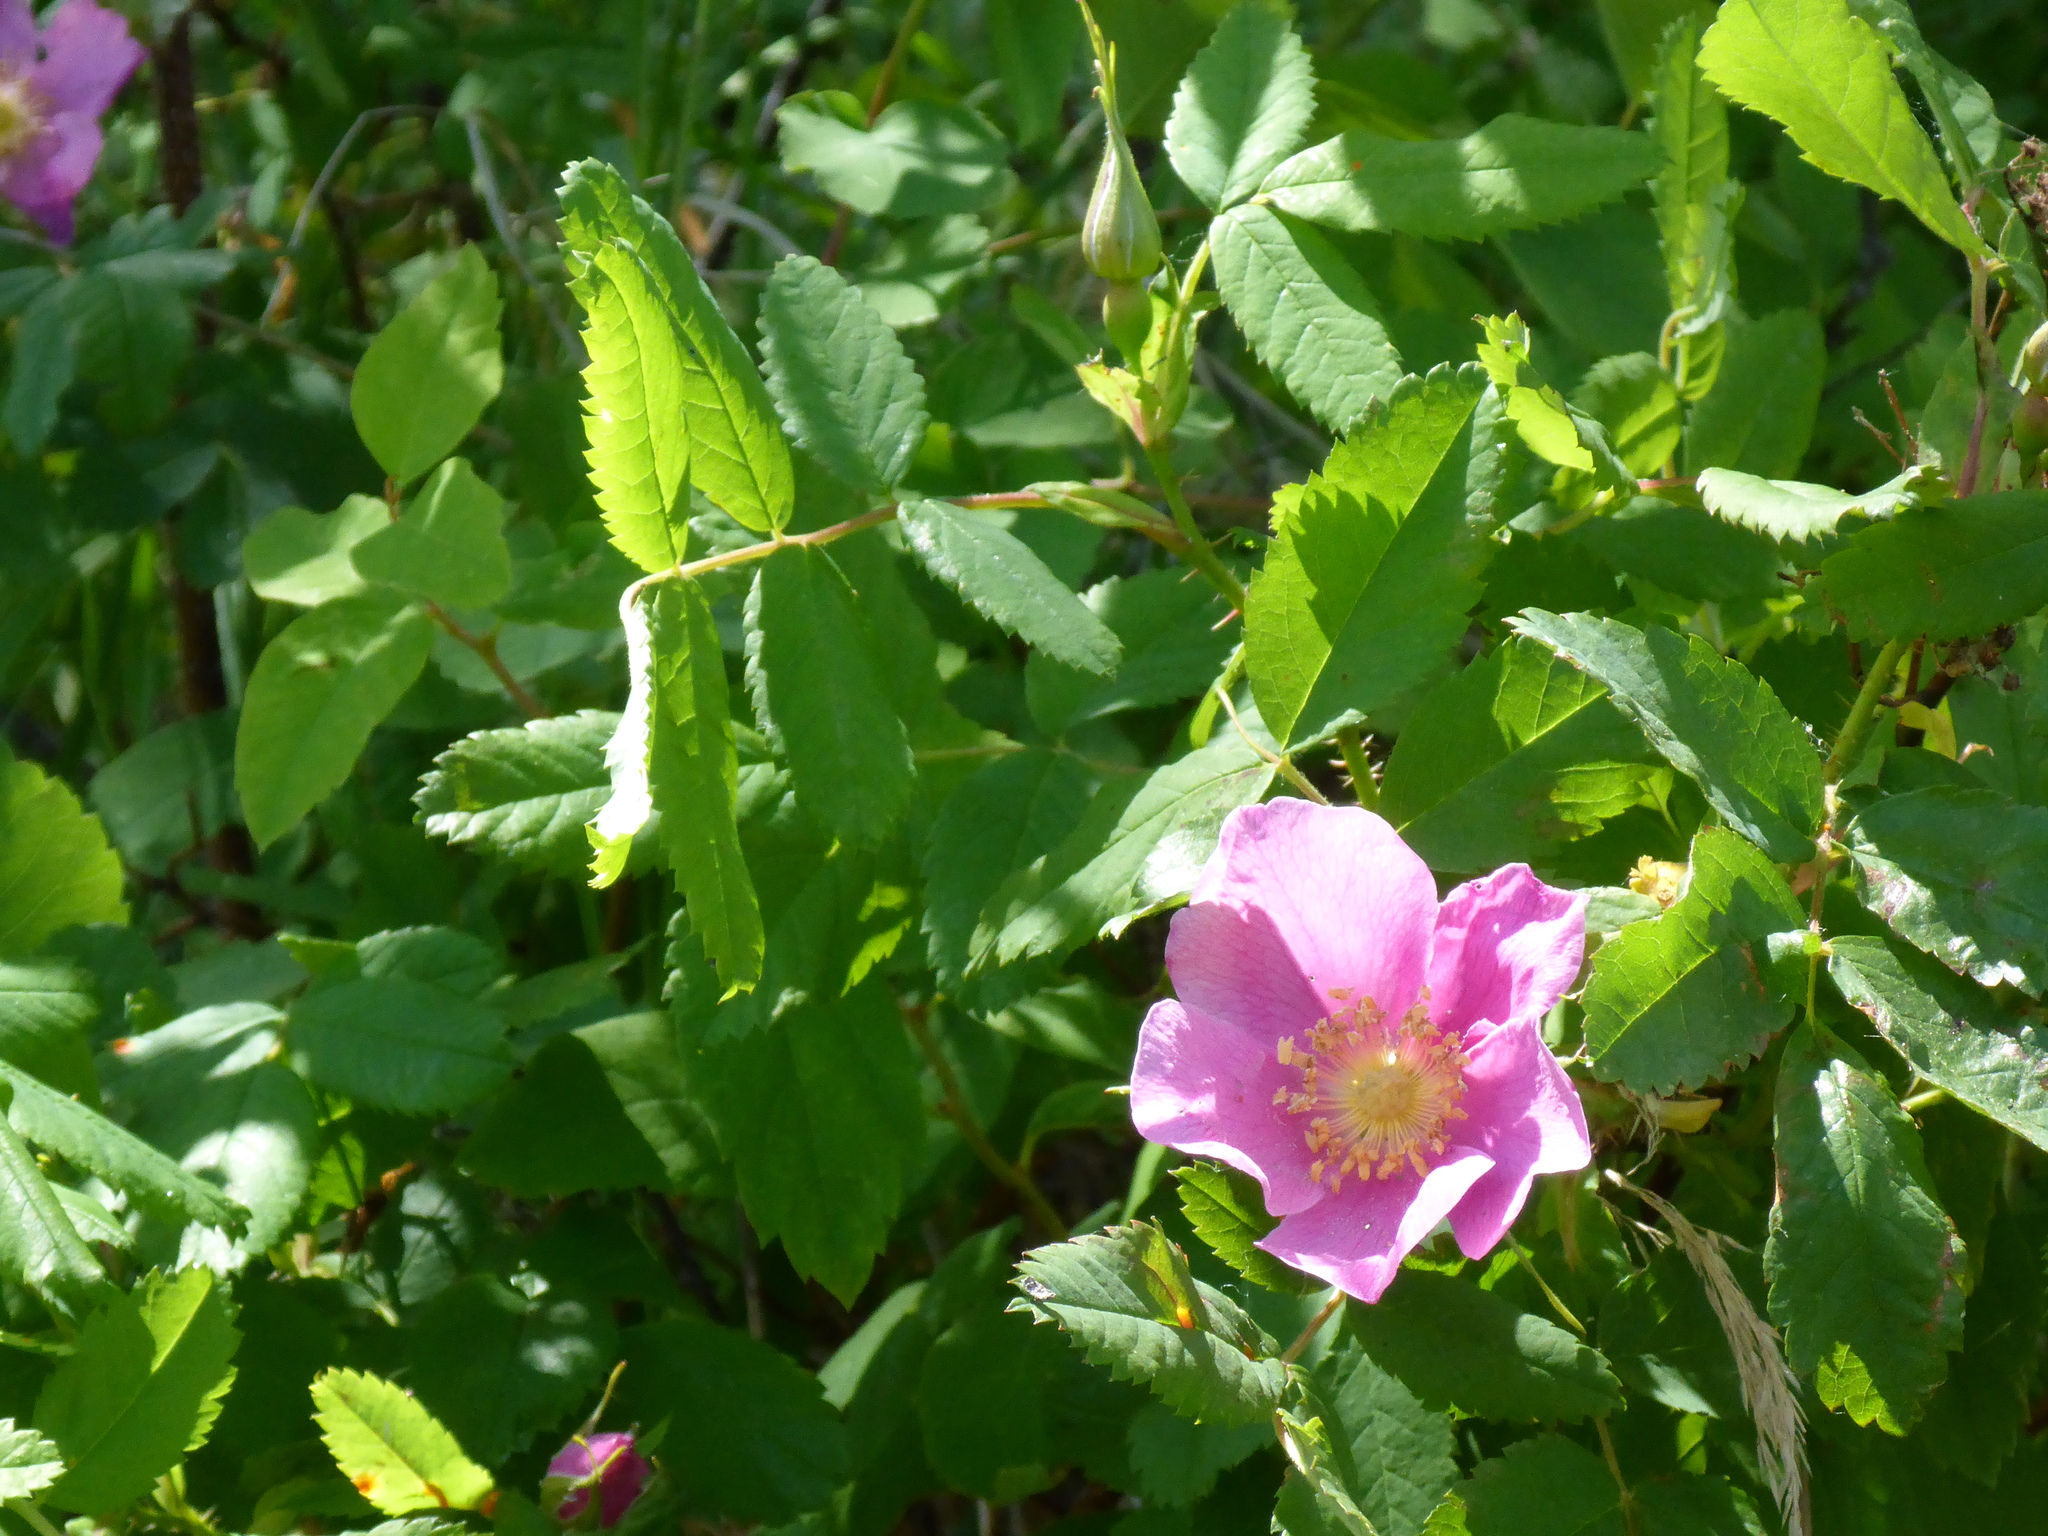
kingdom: Plantae
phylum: Tracheophyta
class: Magnoliopsida
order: Rosales
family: Rosaceae
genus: Rosa
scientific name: Rosa acicularis
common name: Prickly rose
